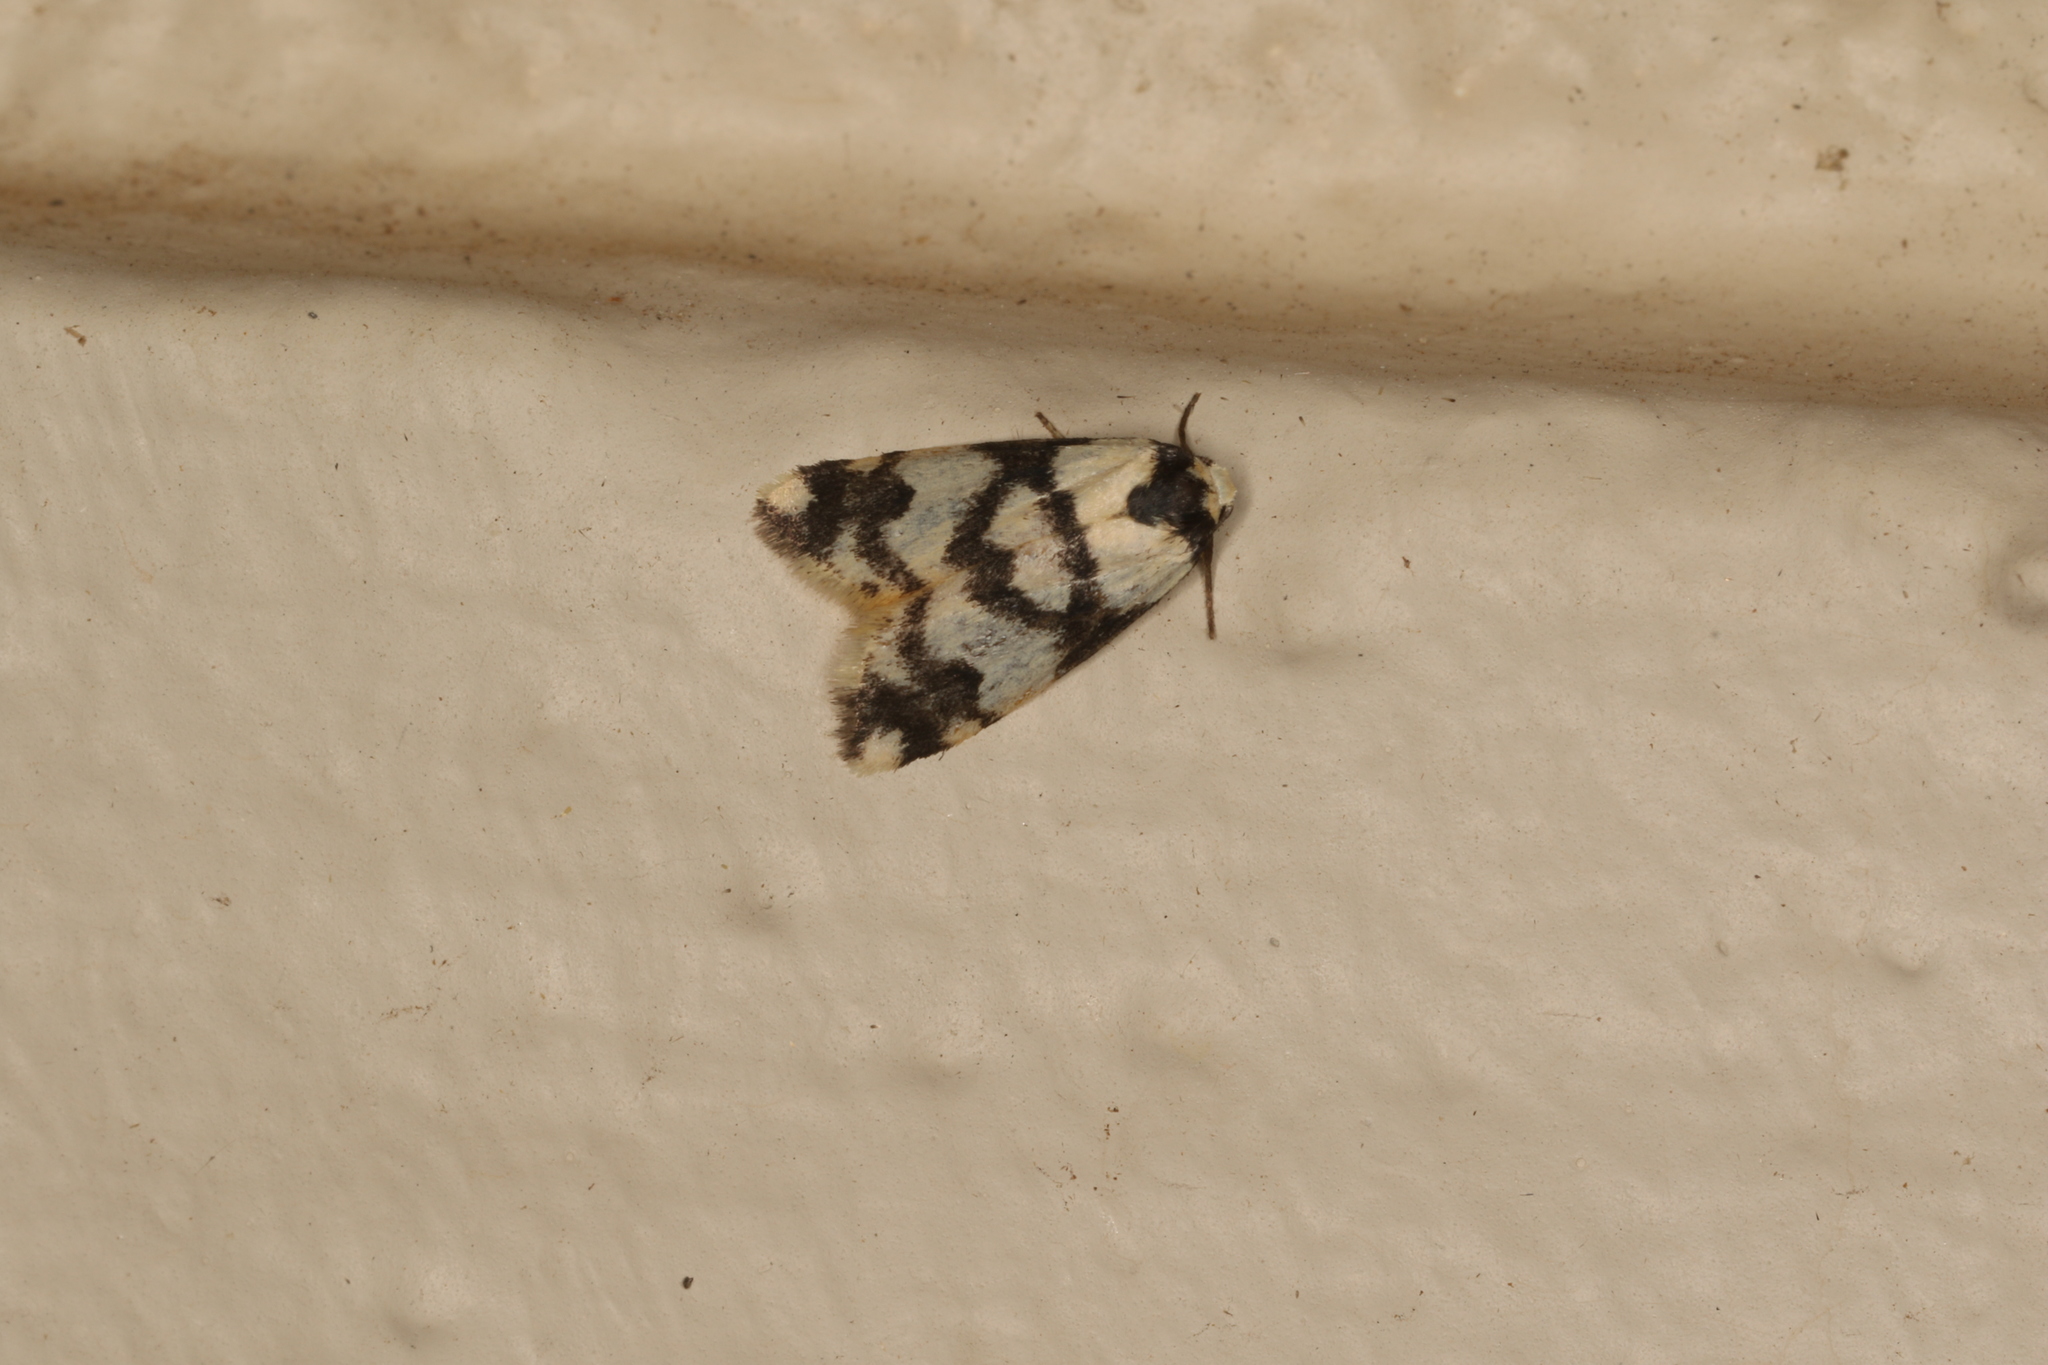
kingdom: Animalia
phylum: Arthropoda
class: Insecta
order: Lepidoptera
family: Erebidae
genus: Thallarcha
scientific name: Thallarcha trissomochla
